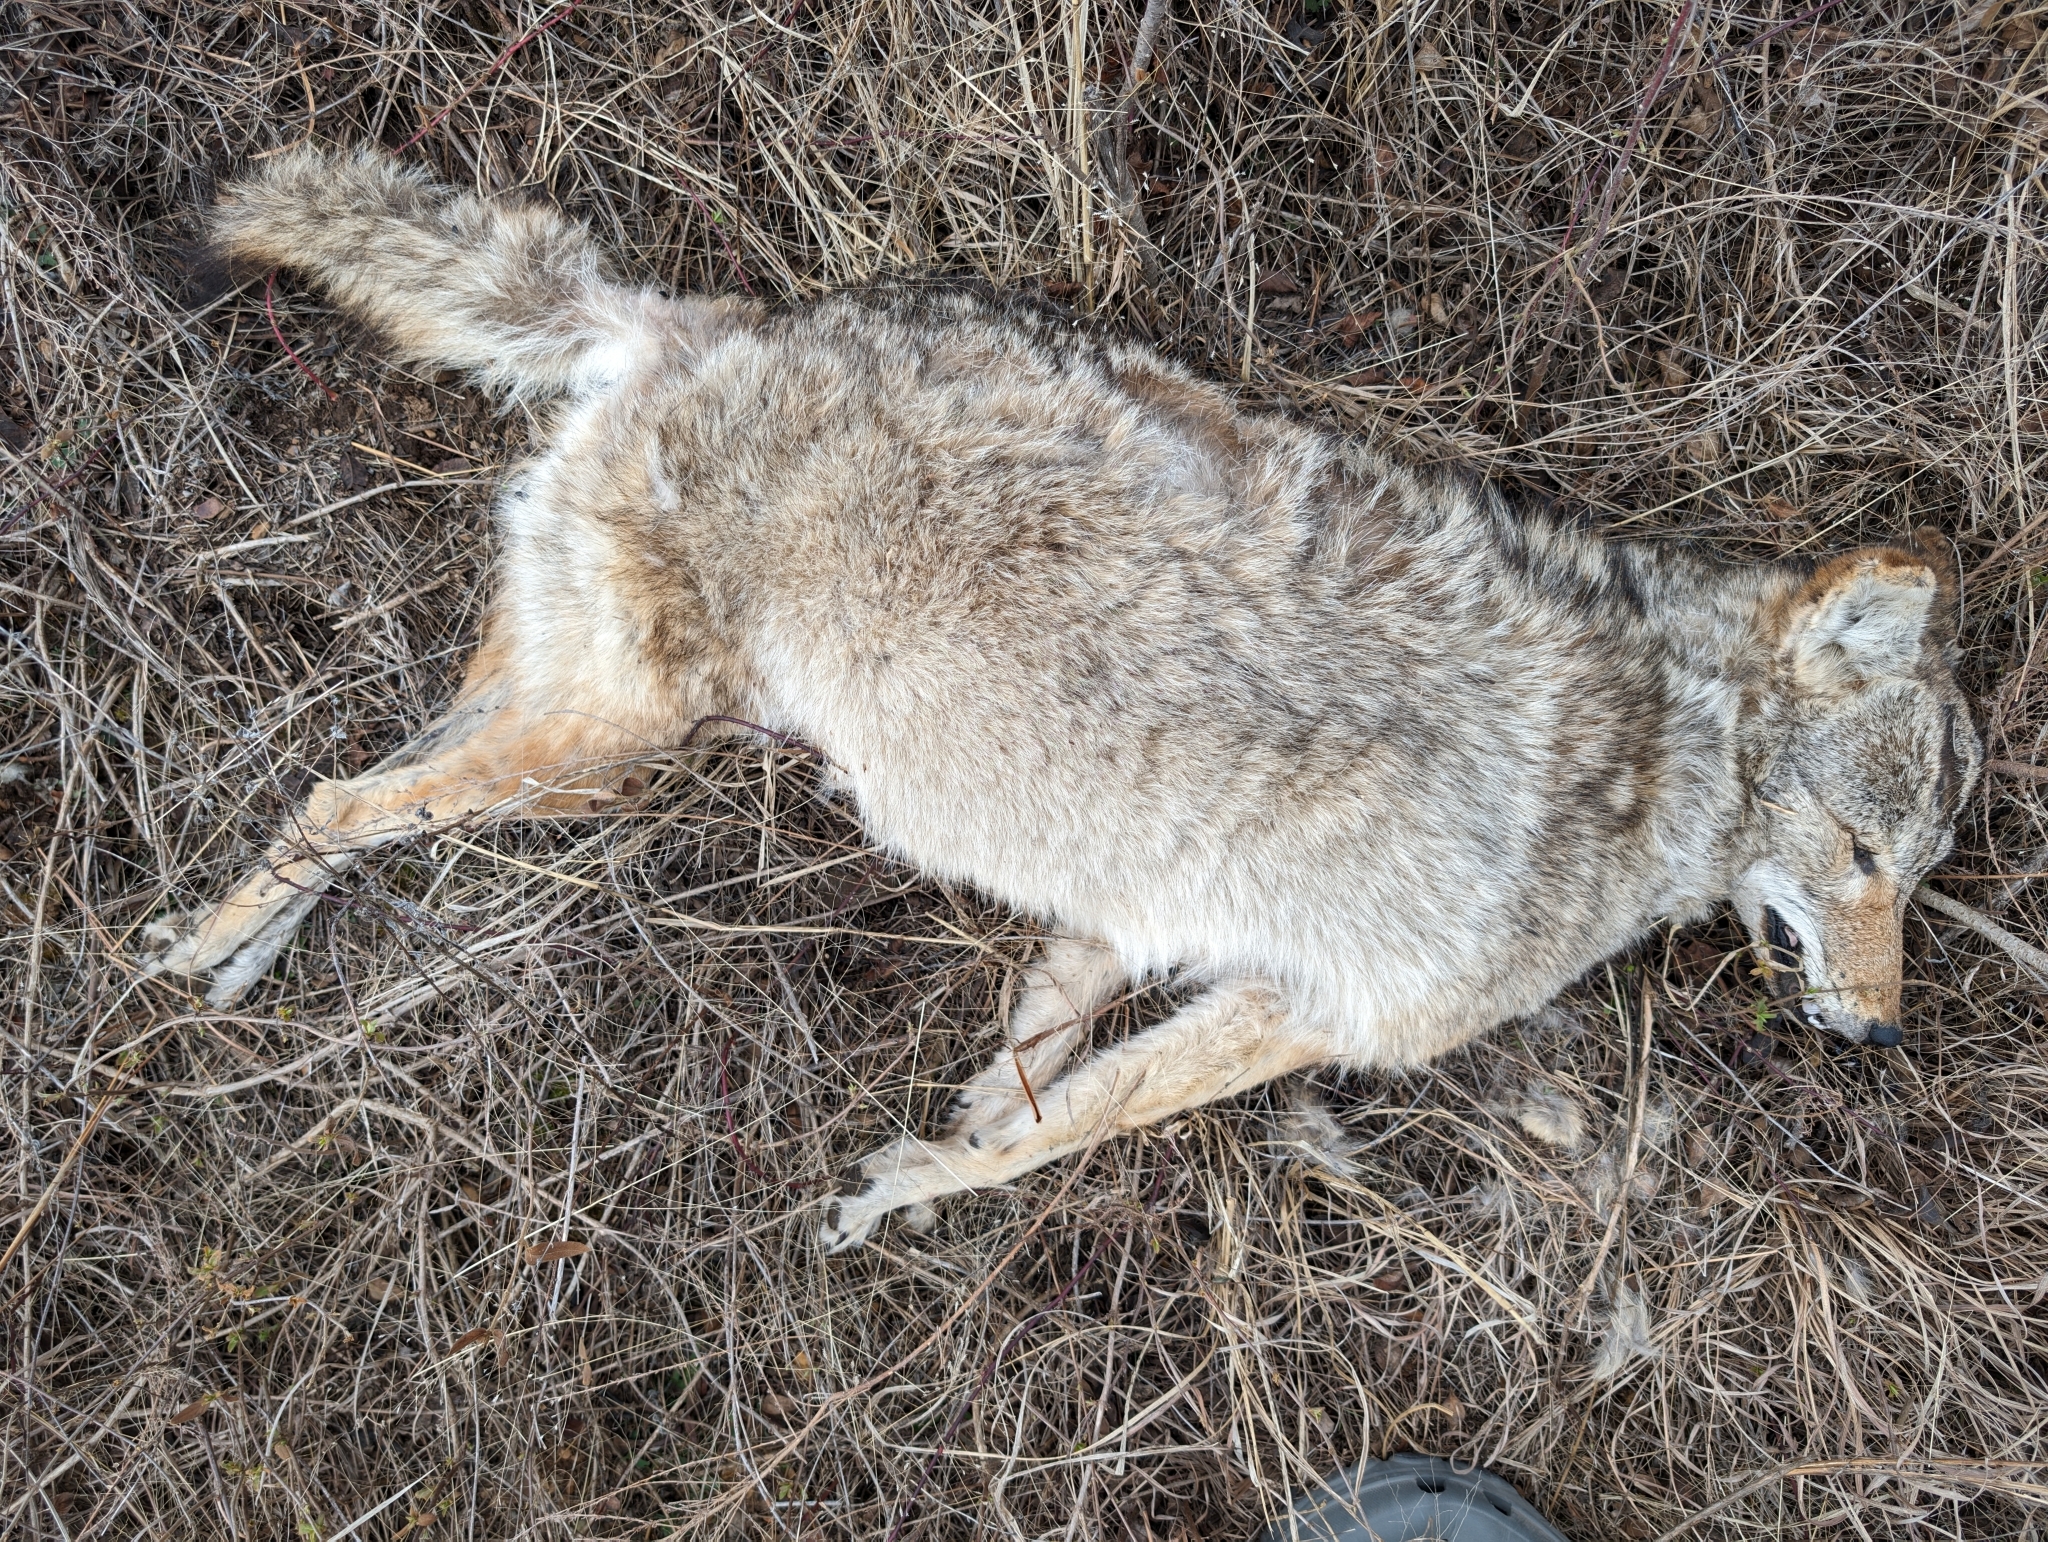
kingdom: Animalia
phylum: Chordata
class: Mammalia
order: Carnivora
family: Canidae
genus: Canis
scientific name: Canis latrans
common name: Coyote
